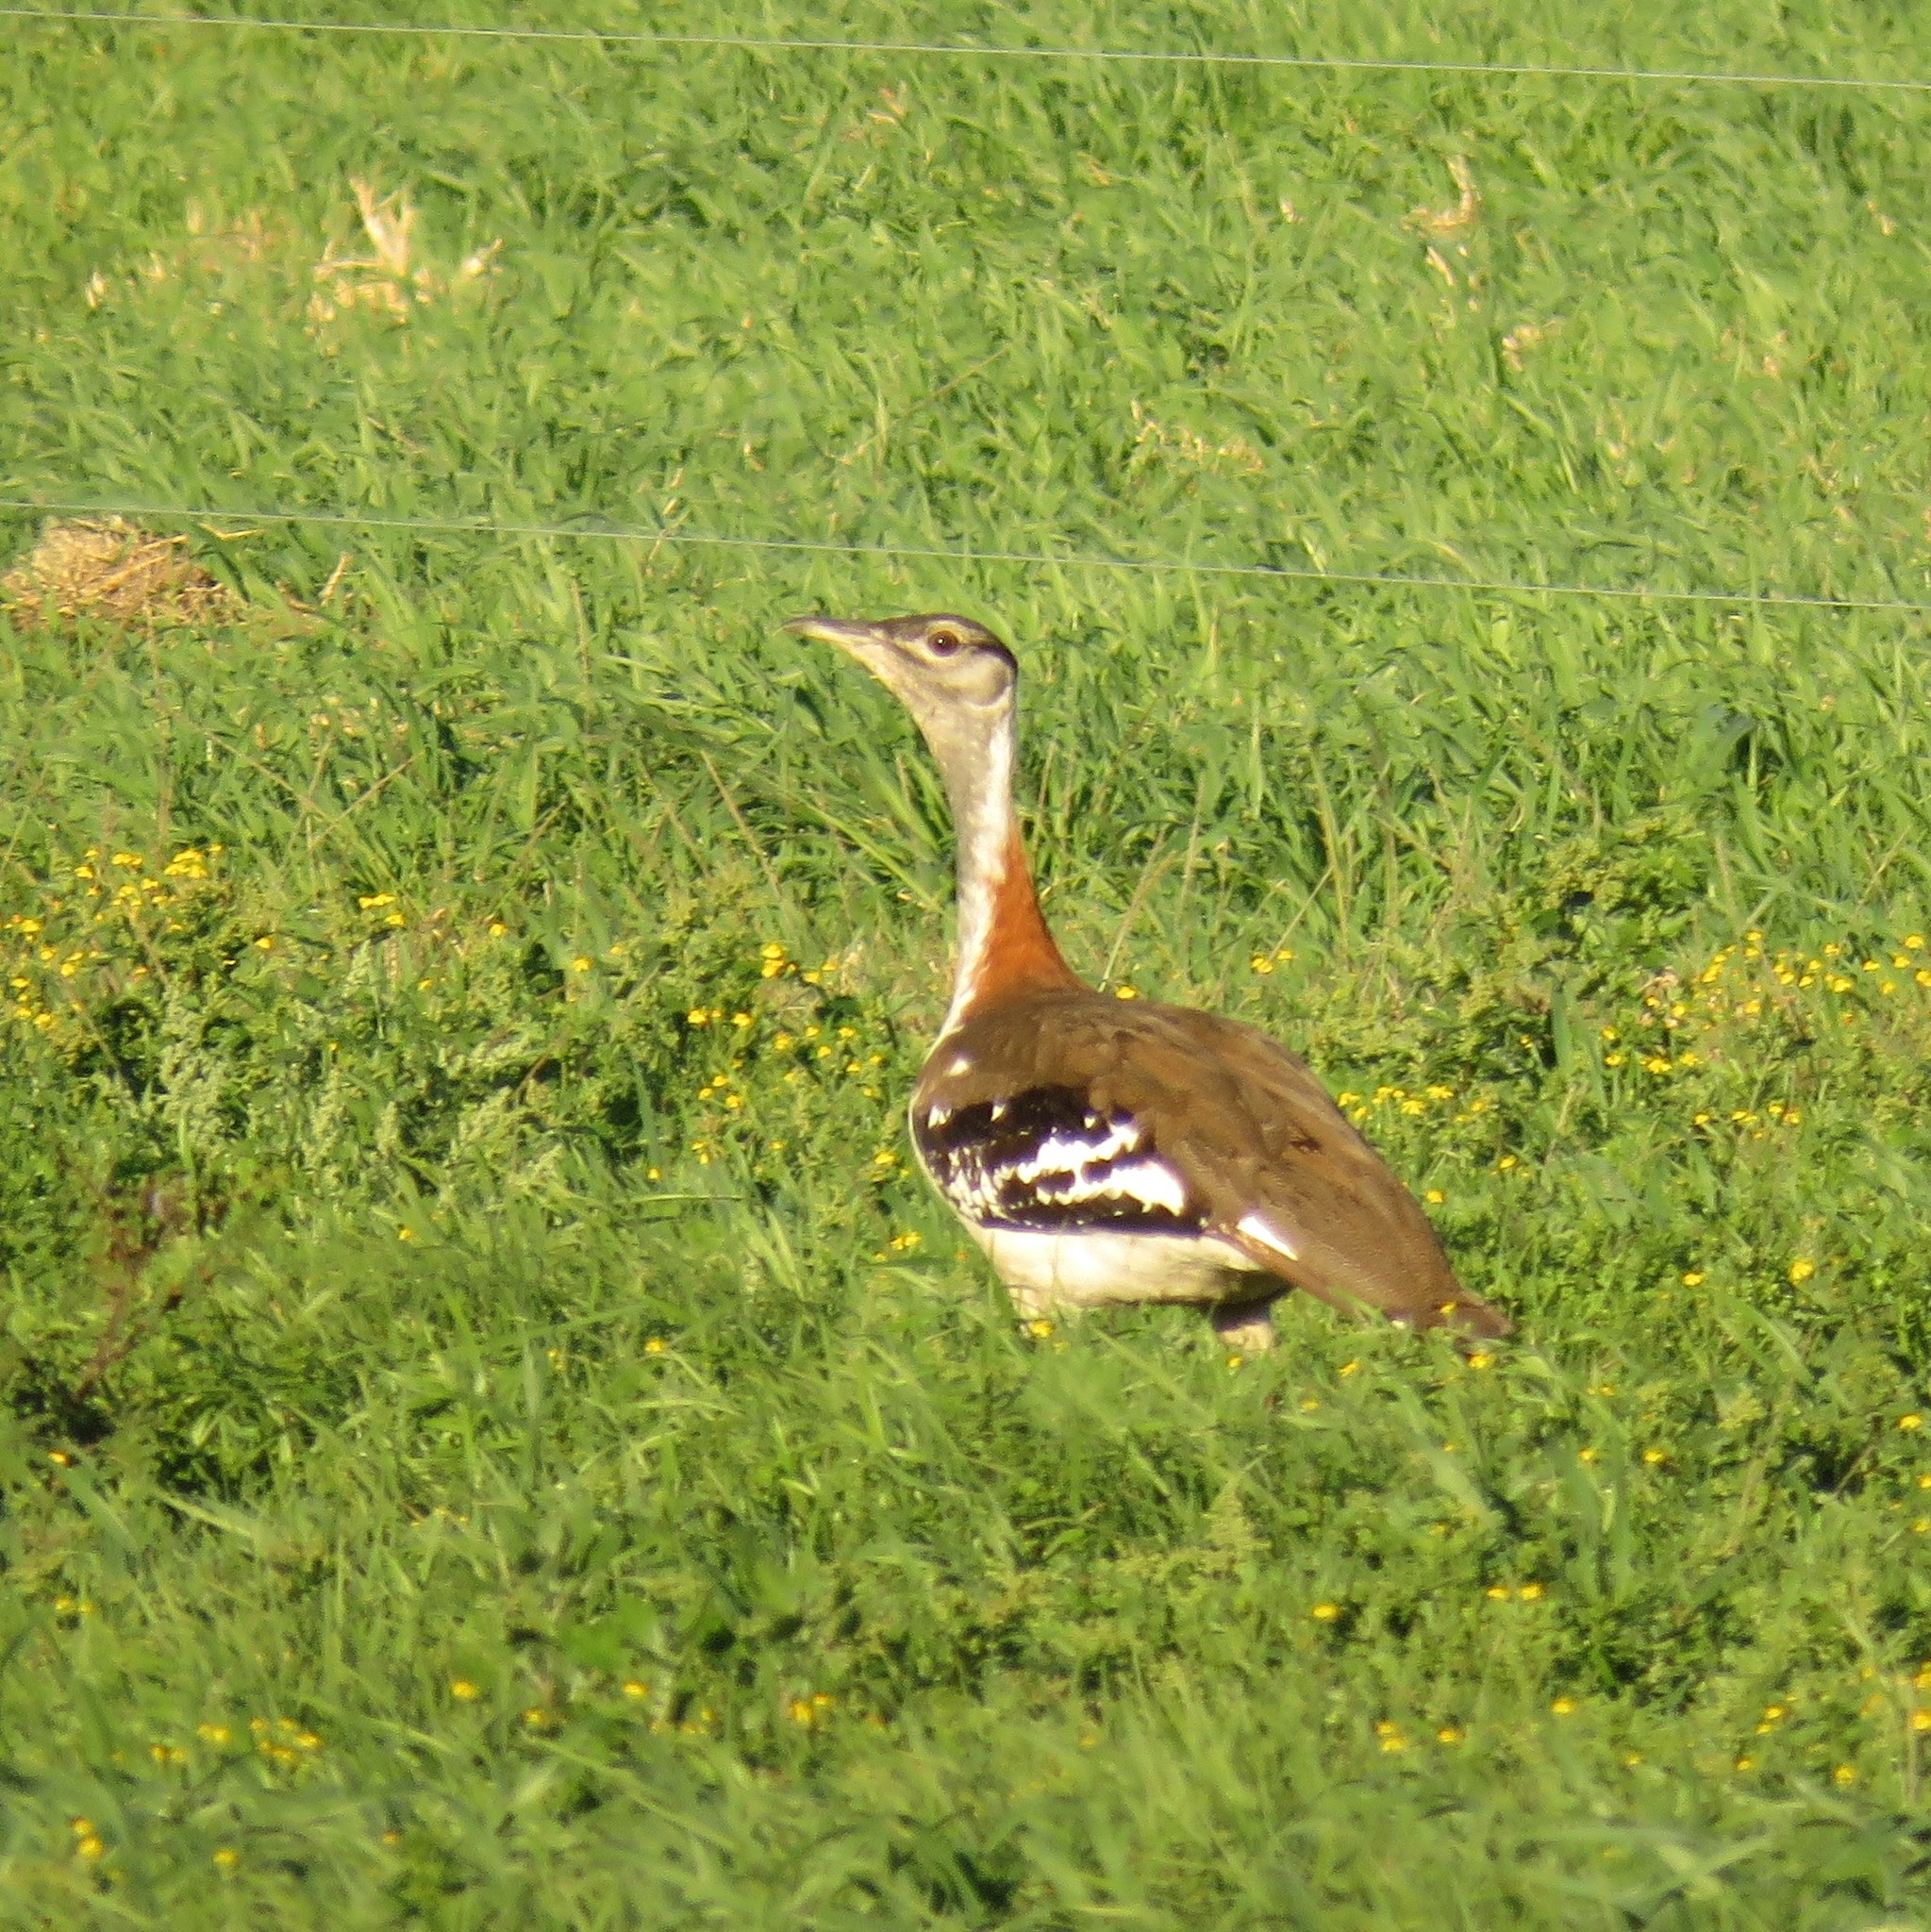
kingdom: Animalia
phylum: Chordata
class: Aves
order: Otidiformes
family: Otididae
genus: Neotis
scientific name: Neotis denhami
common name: Denham's bustard
